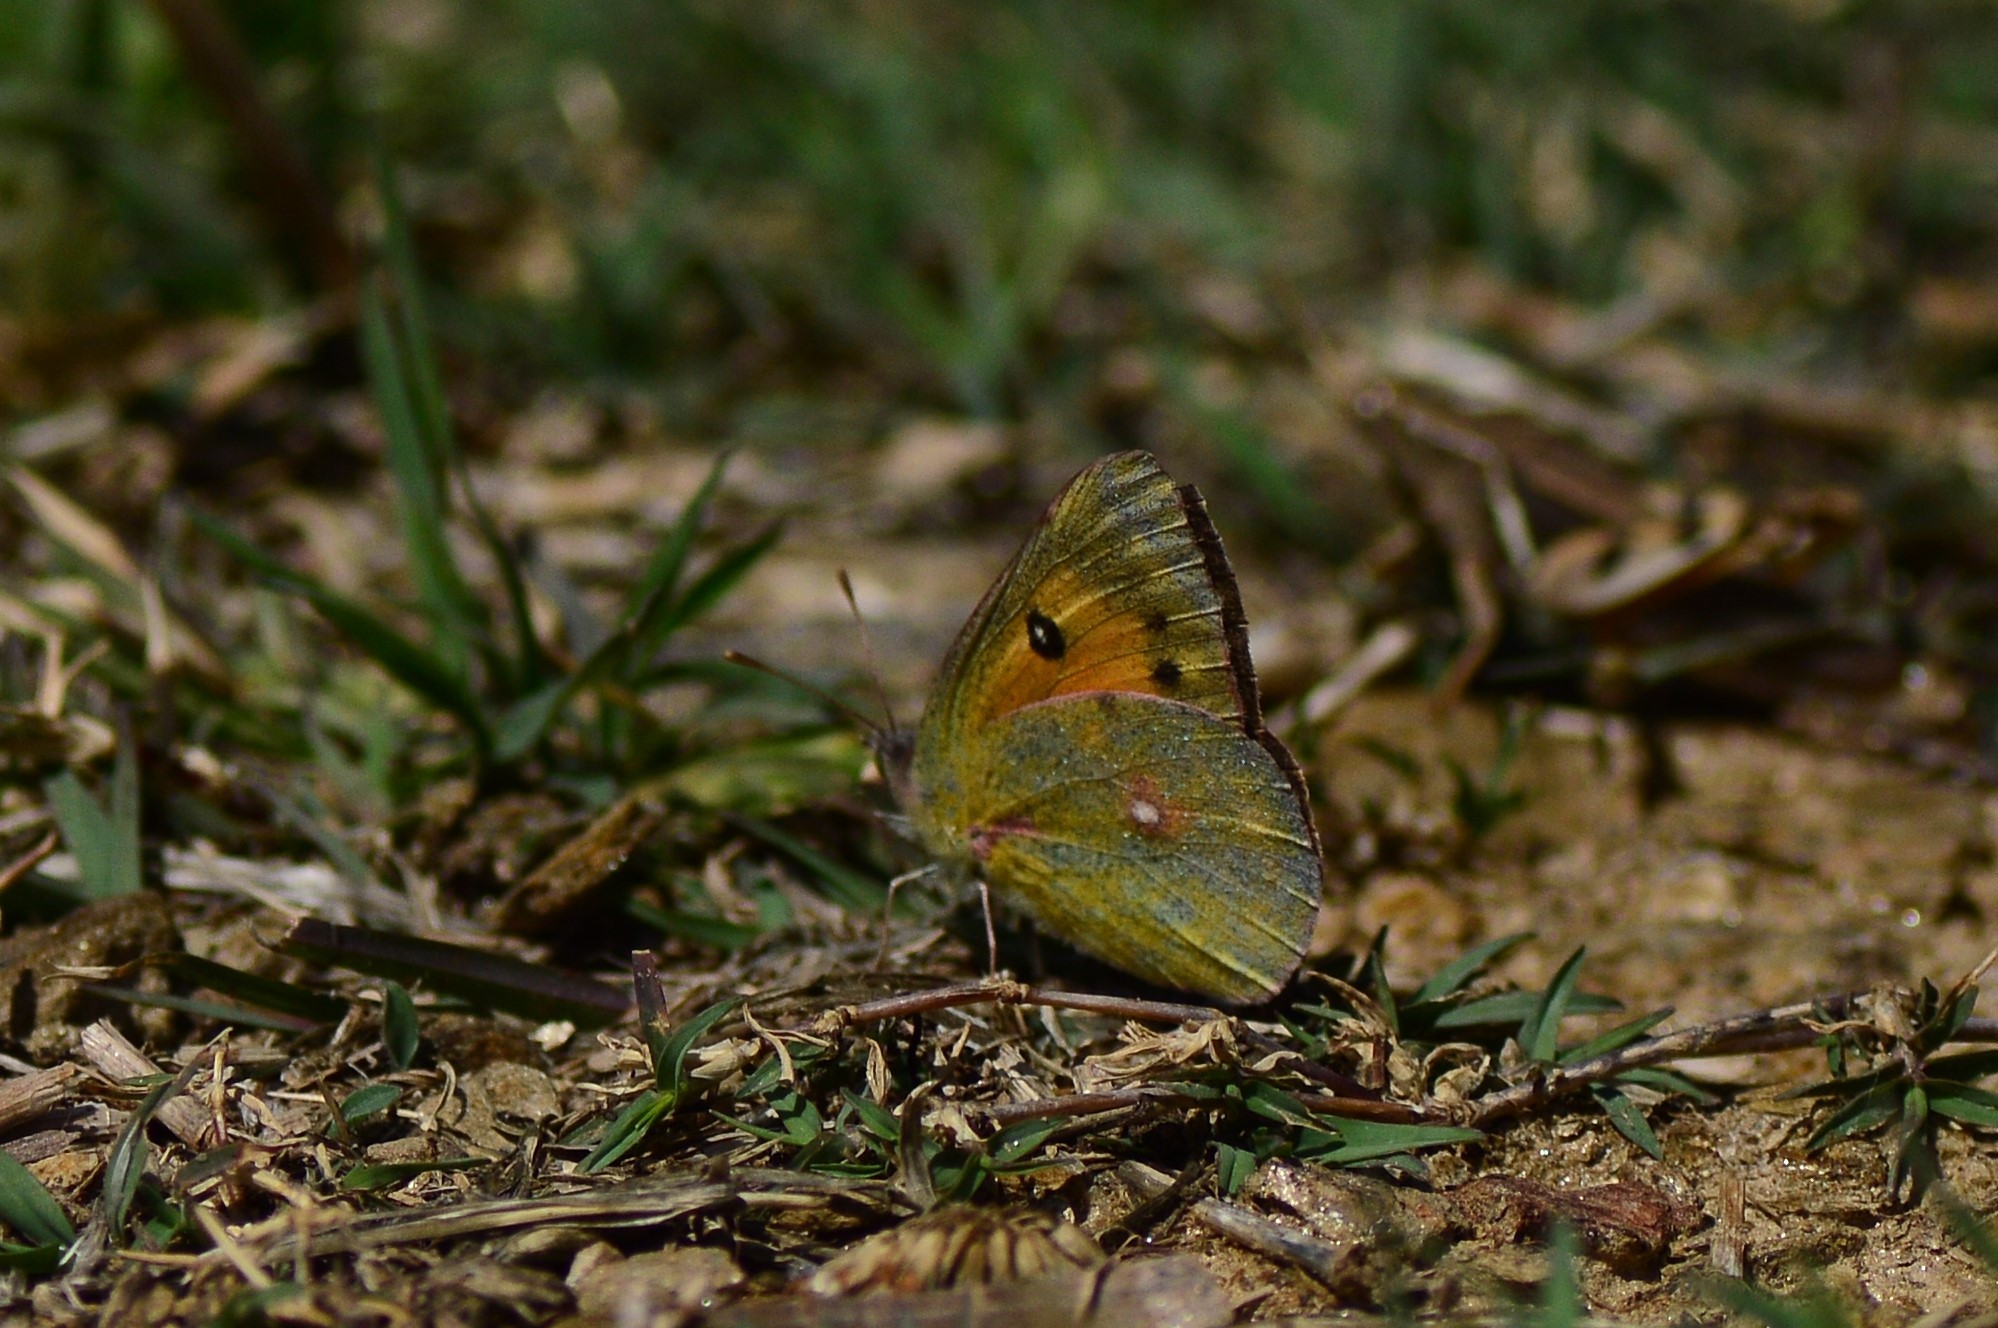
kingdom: Animalia
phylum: Arthropoda
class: Insecta
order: Lepidoptera
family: Pieridae
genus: Colias
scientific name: Colias fieldii
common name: Dark clouded yellow
